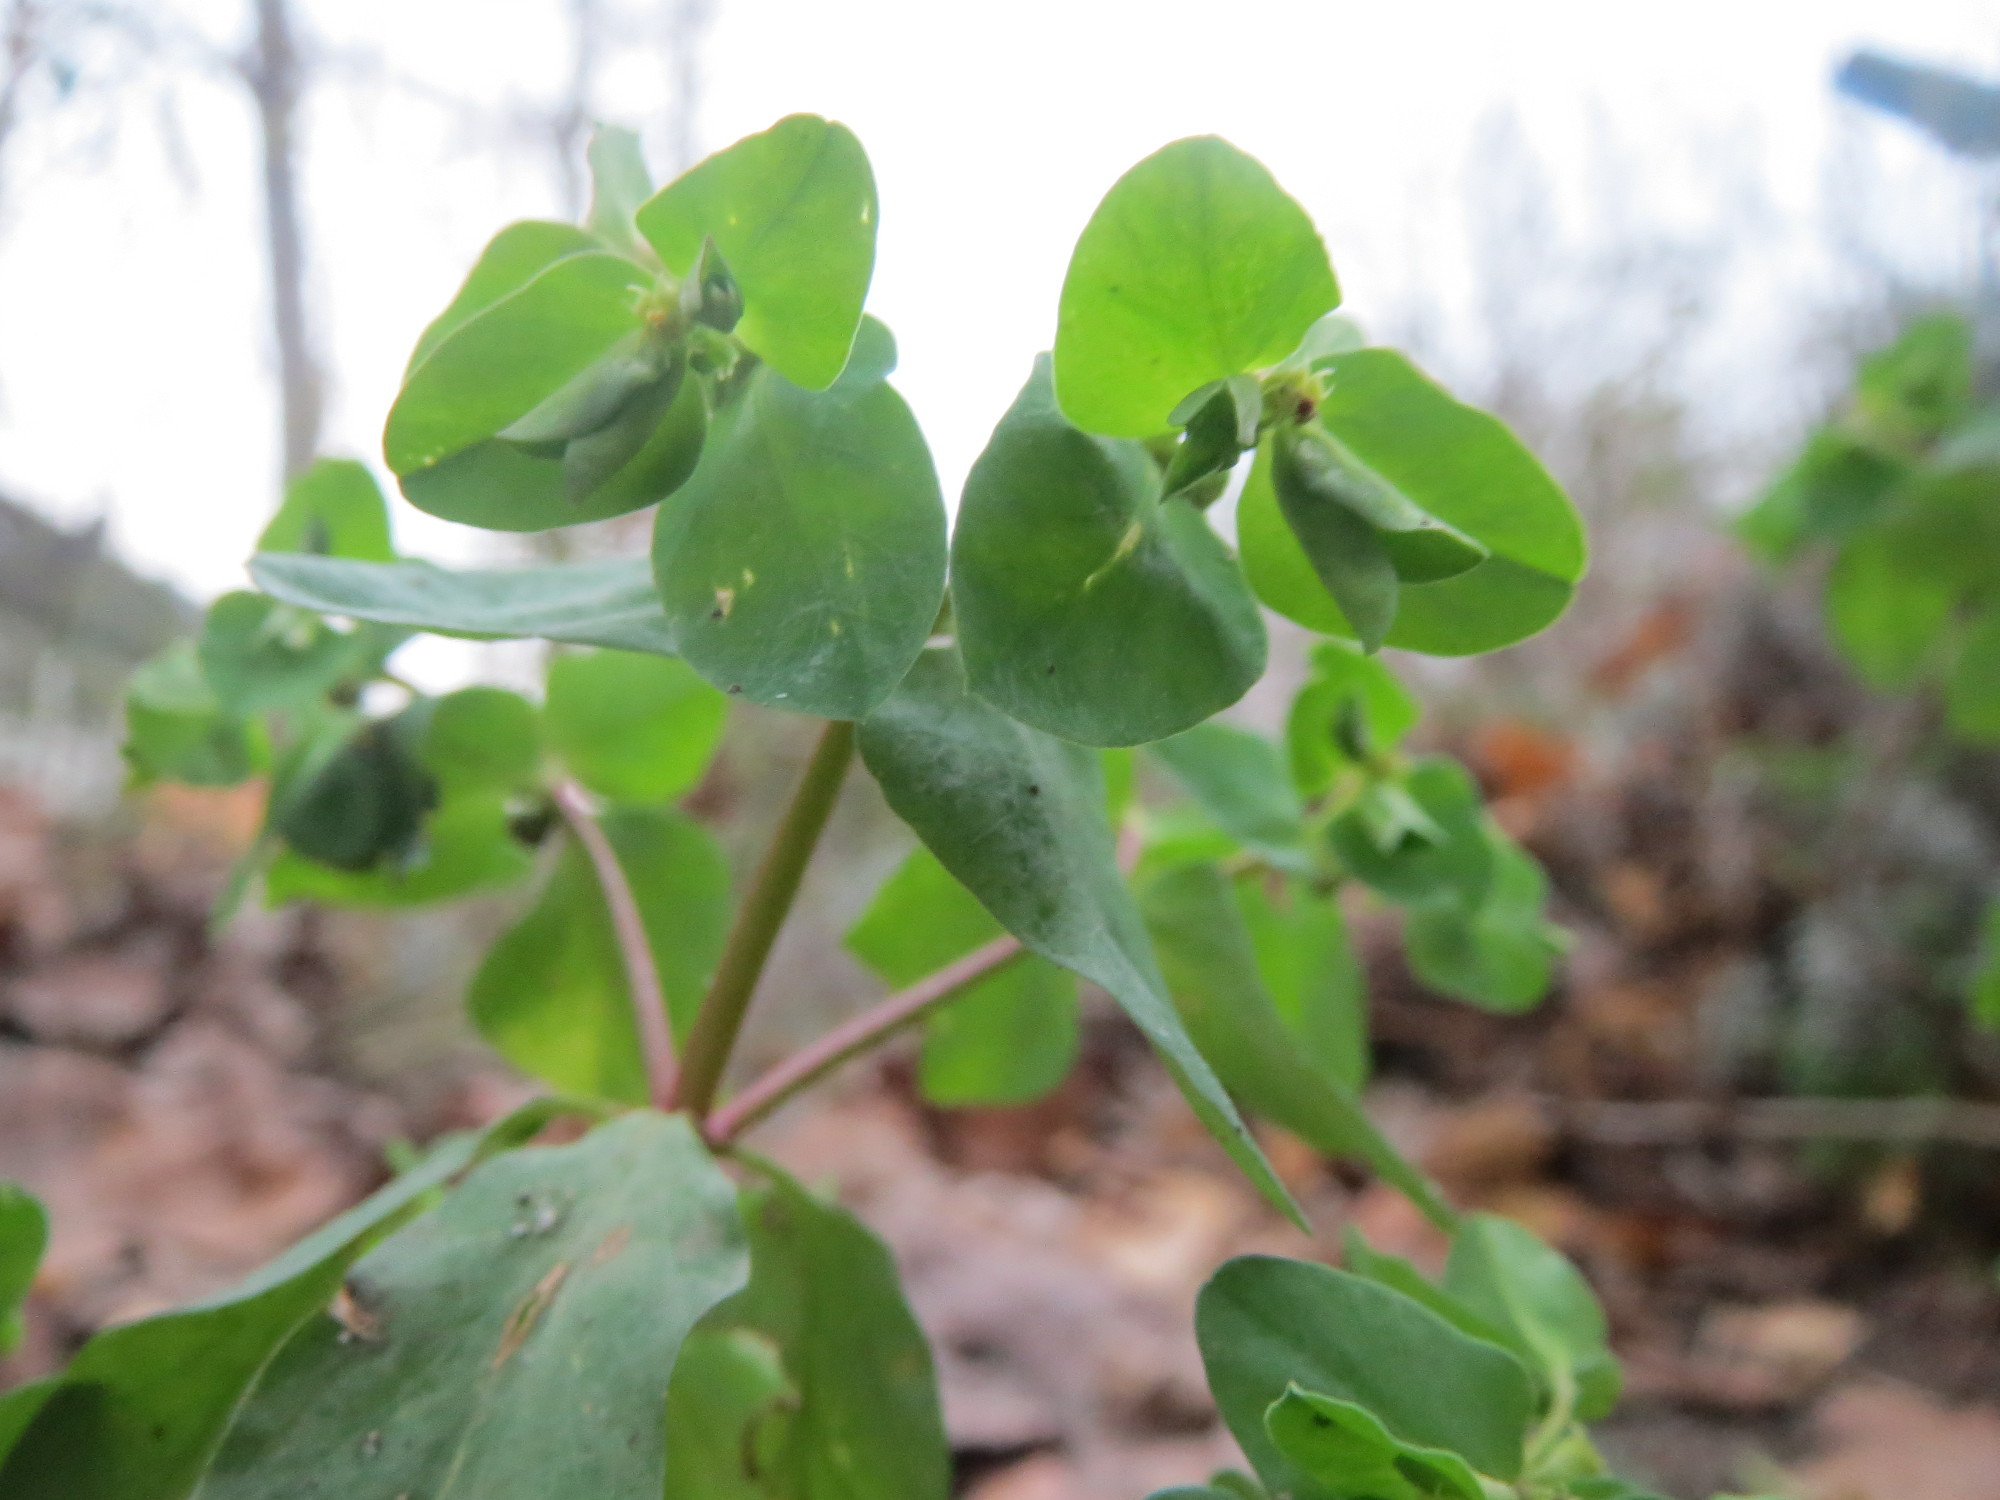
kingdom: Plantae
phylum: Tracheophyta
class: Magnoliopsida
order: Malpighiales
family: Euphorbiaceae
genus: Euphorbia
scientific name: Euphorbia peplus
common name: Petty spurge
